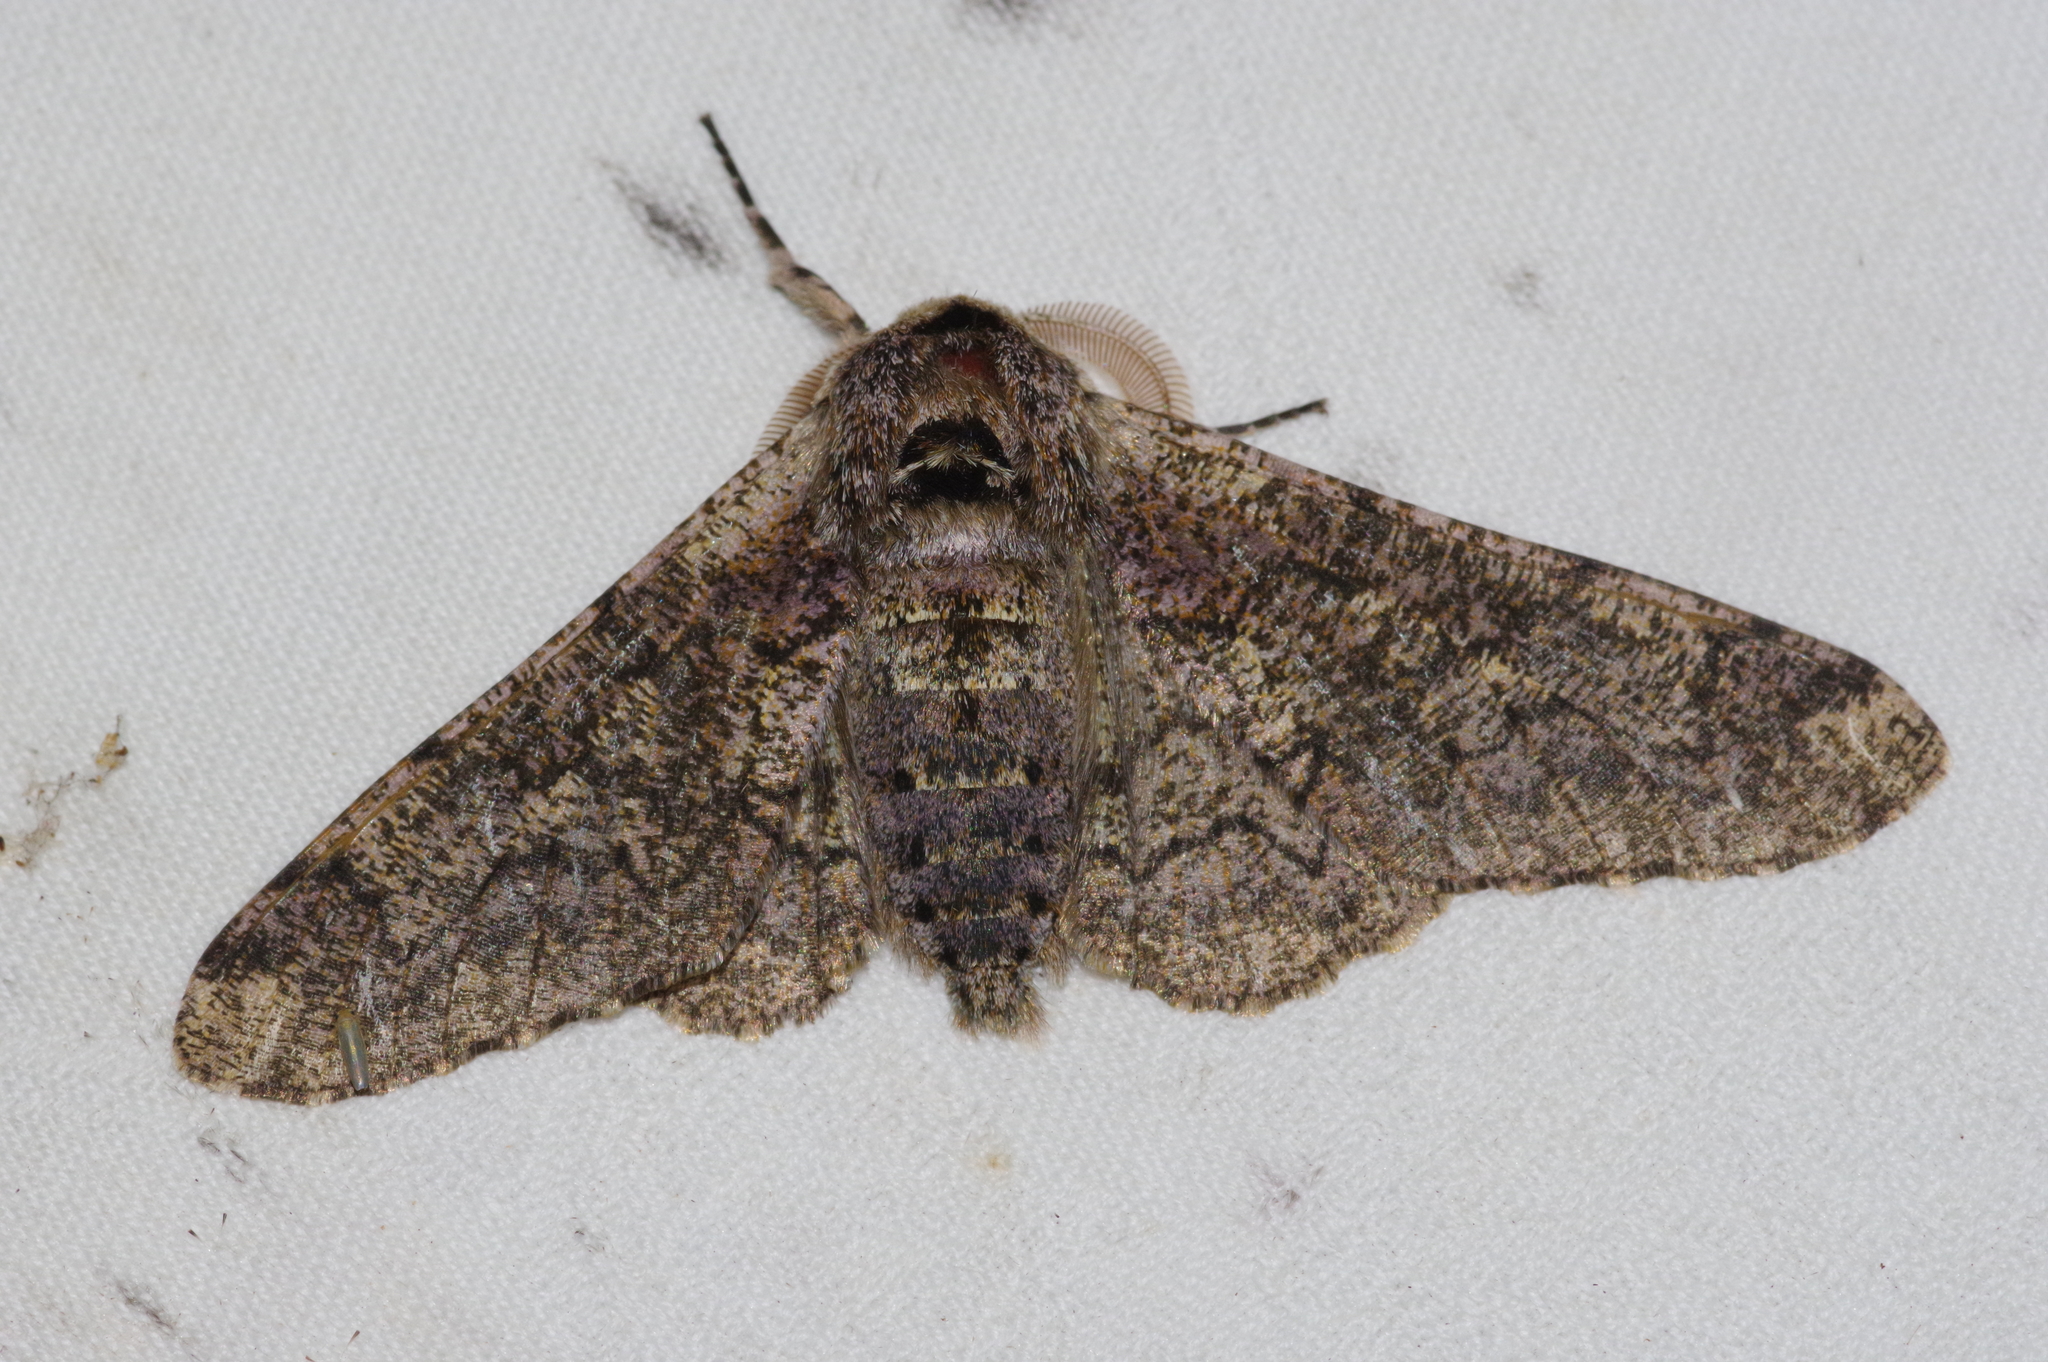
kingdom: Animalia
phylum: Arthropoda
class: Insecta
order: Lepidoptera
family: Geometridae
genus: Biston
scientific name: Biston robustum
